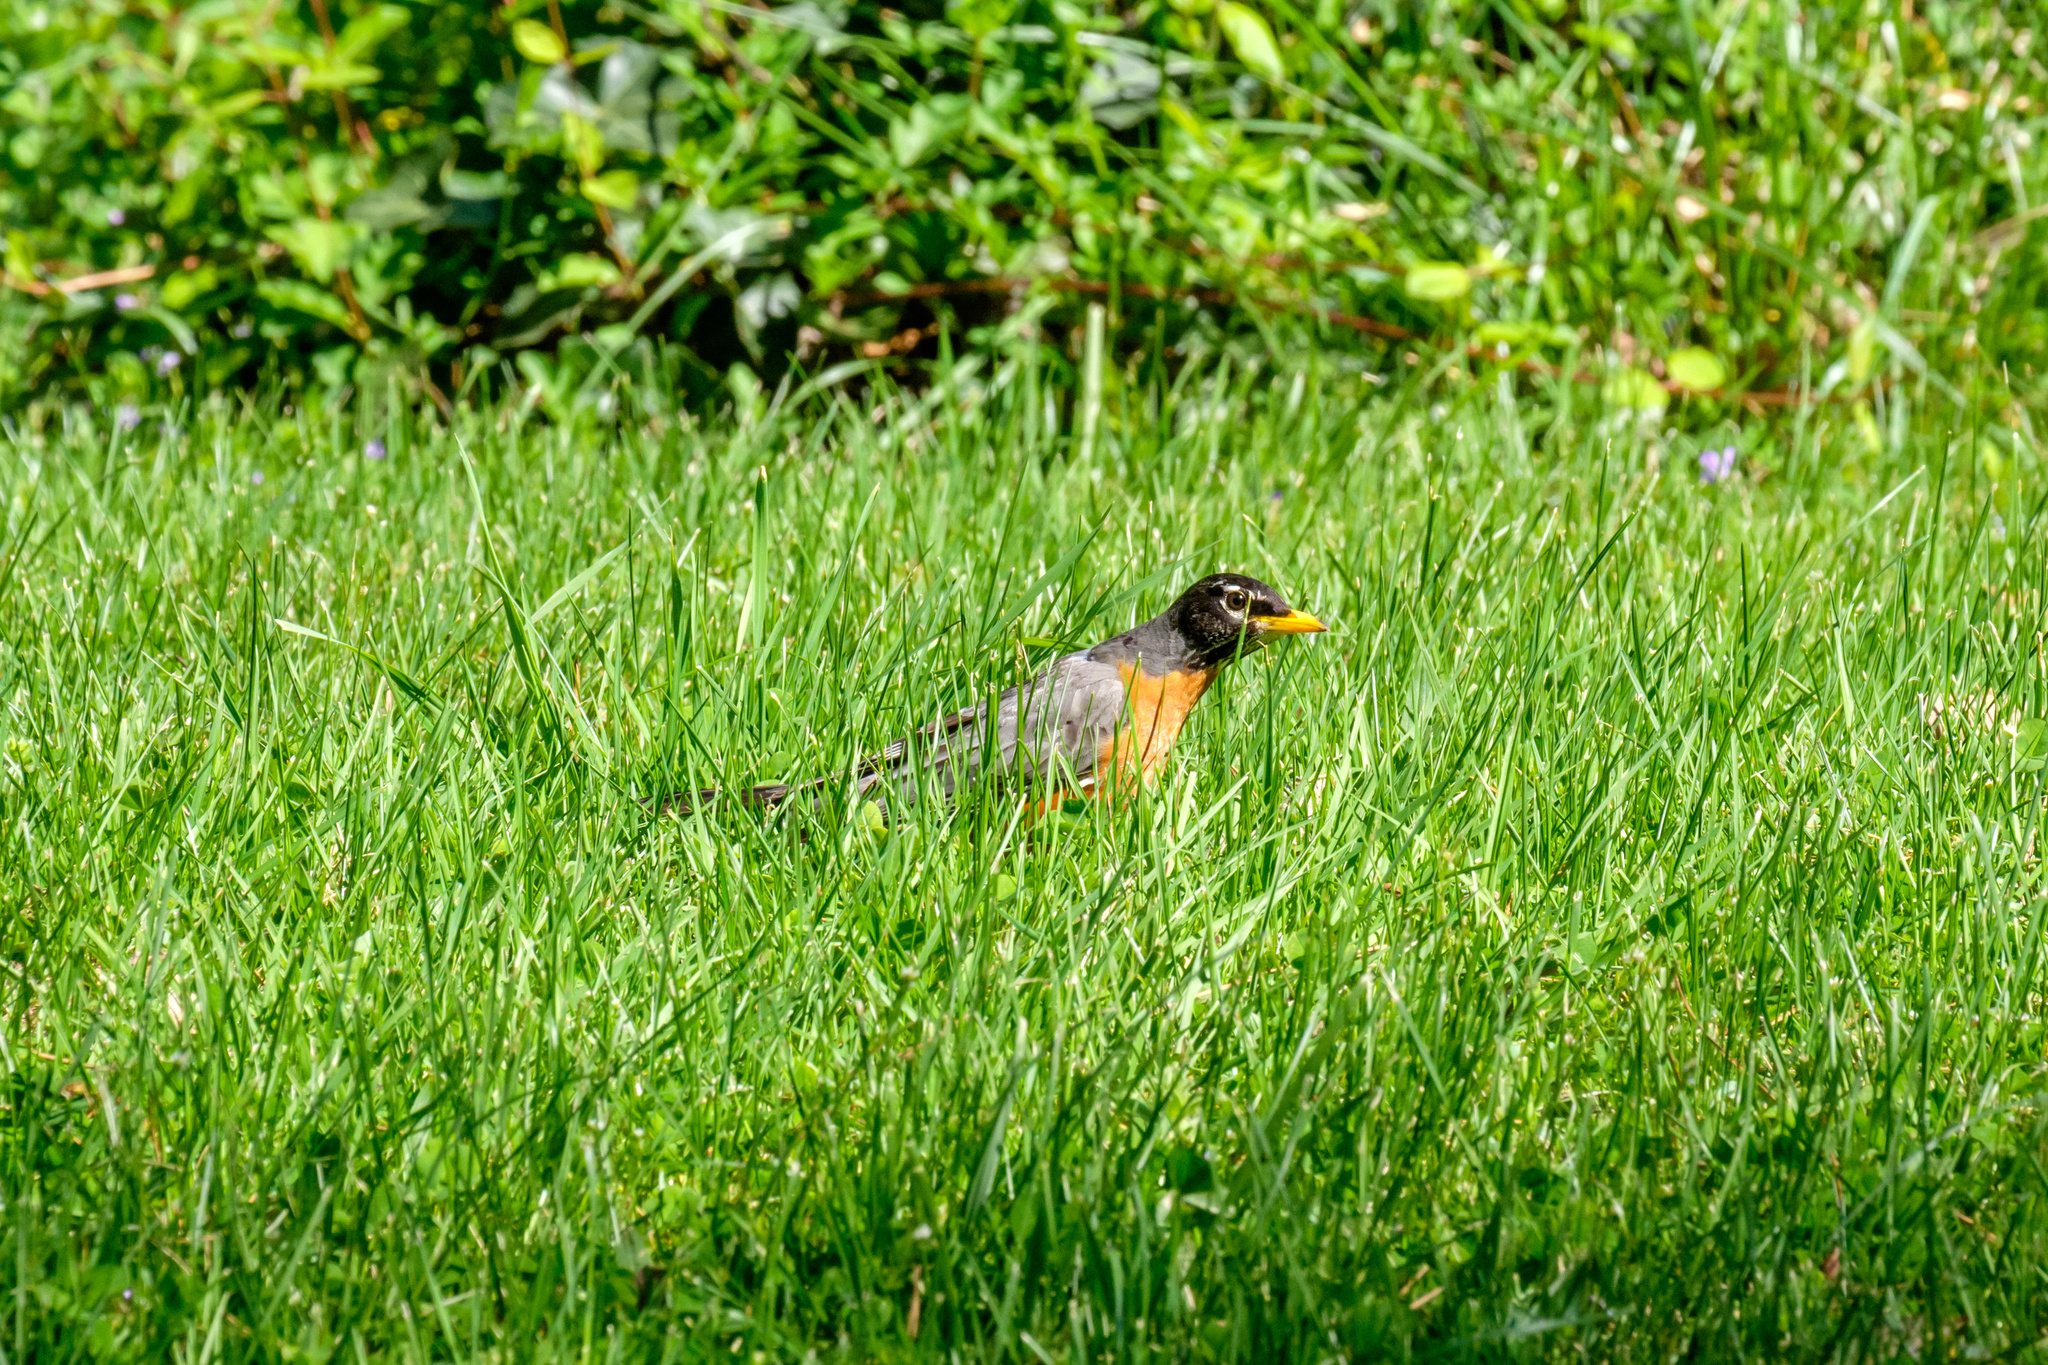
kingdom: Animalia
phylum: Chordata
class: Aves
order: Passeriformes
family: Turdidae
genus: Turdus
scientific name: Turdus migratorius
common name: American robin
